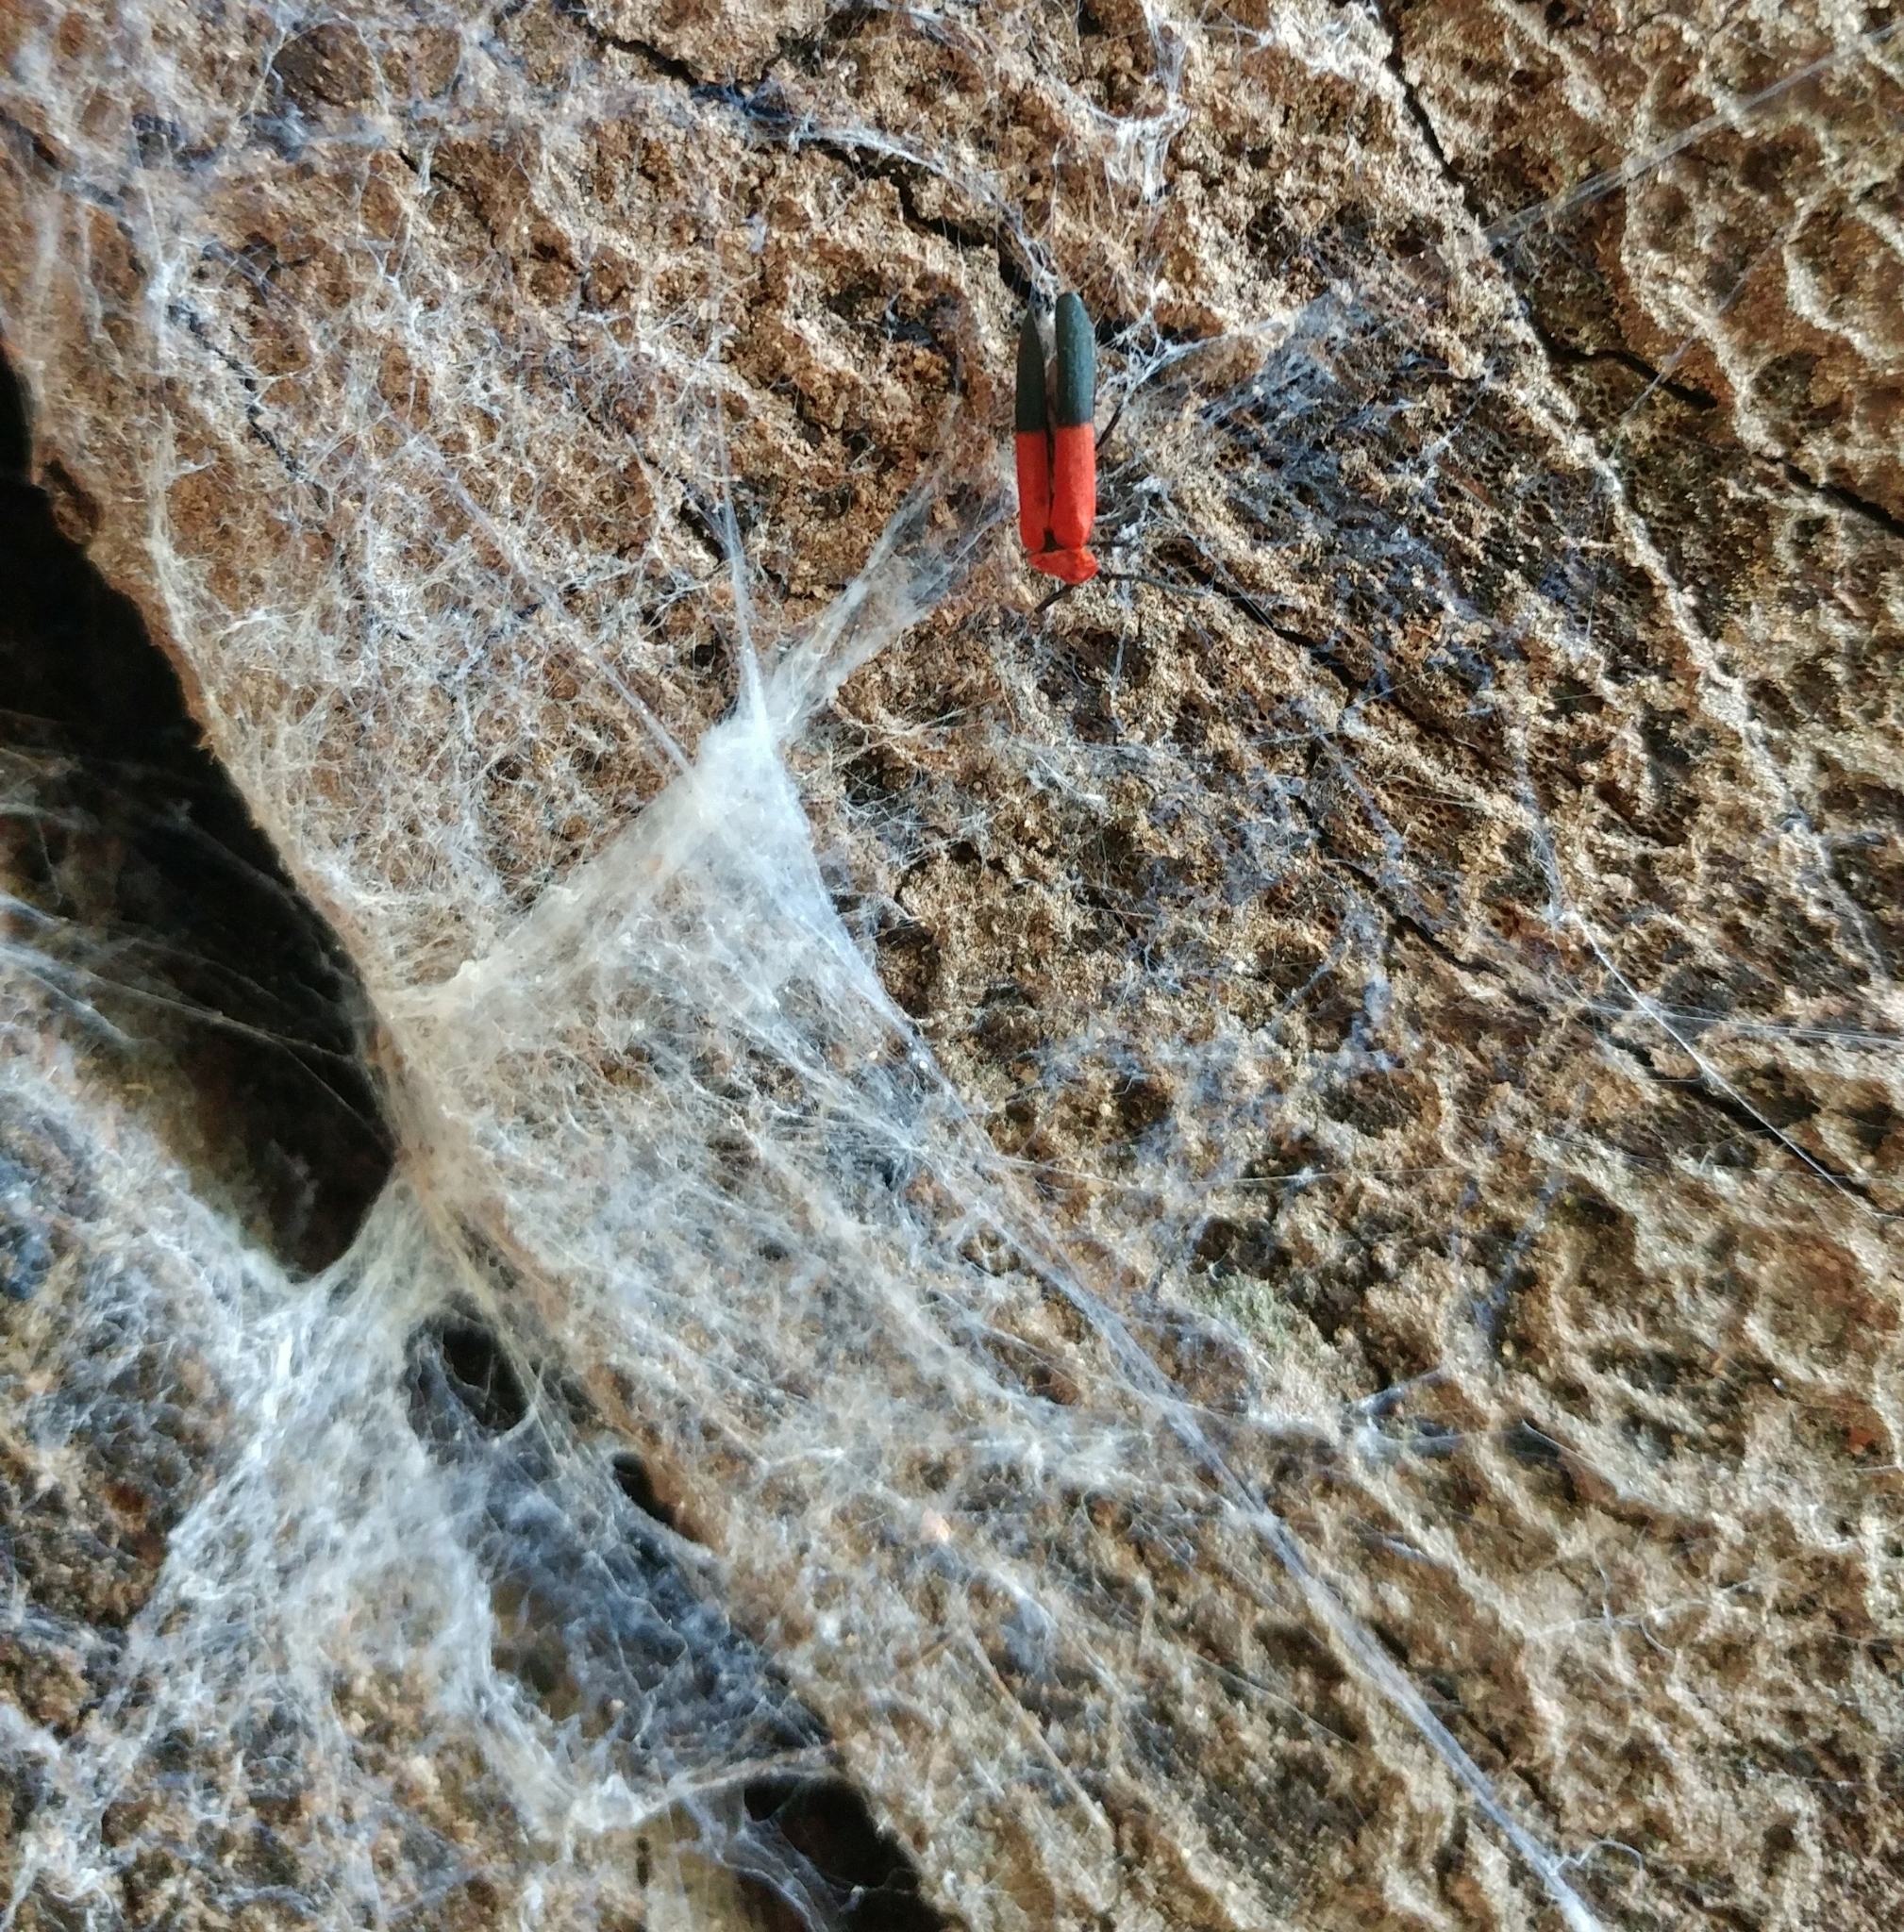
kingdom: Animalia
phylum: Arthropoda
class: Insecta
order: Coleoptera
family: Lycidae
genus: Calochromus
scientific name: Calochromus slevini
